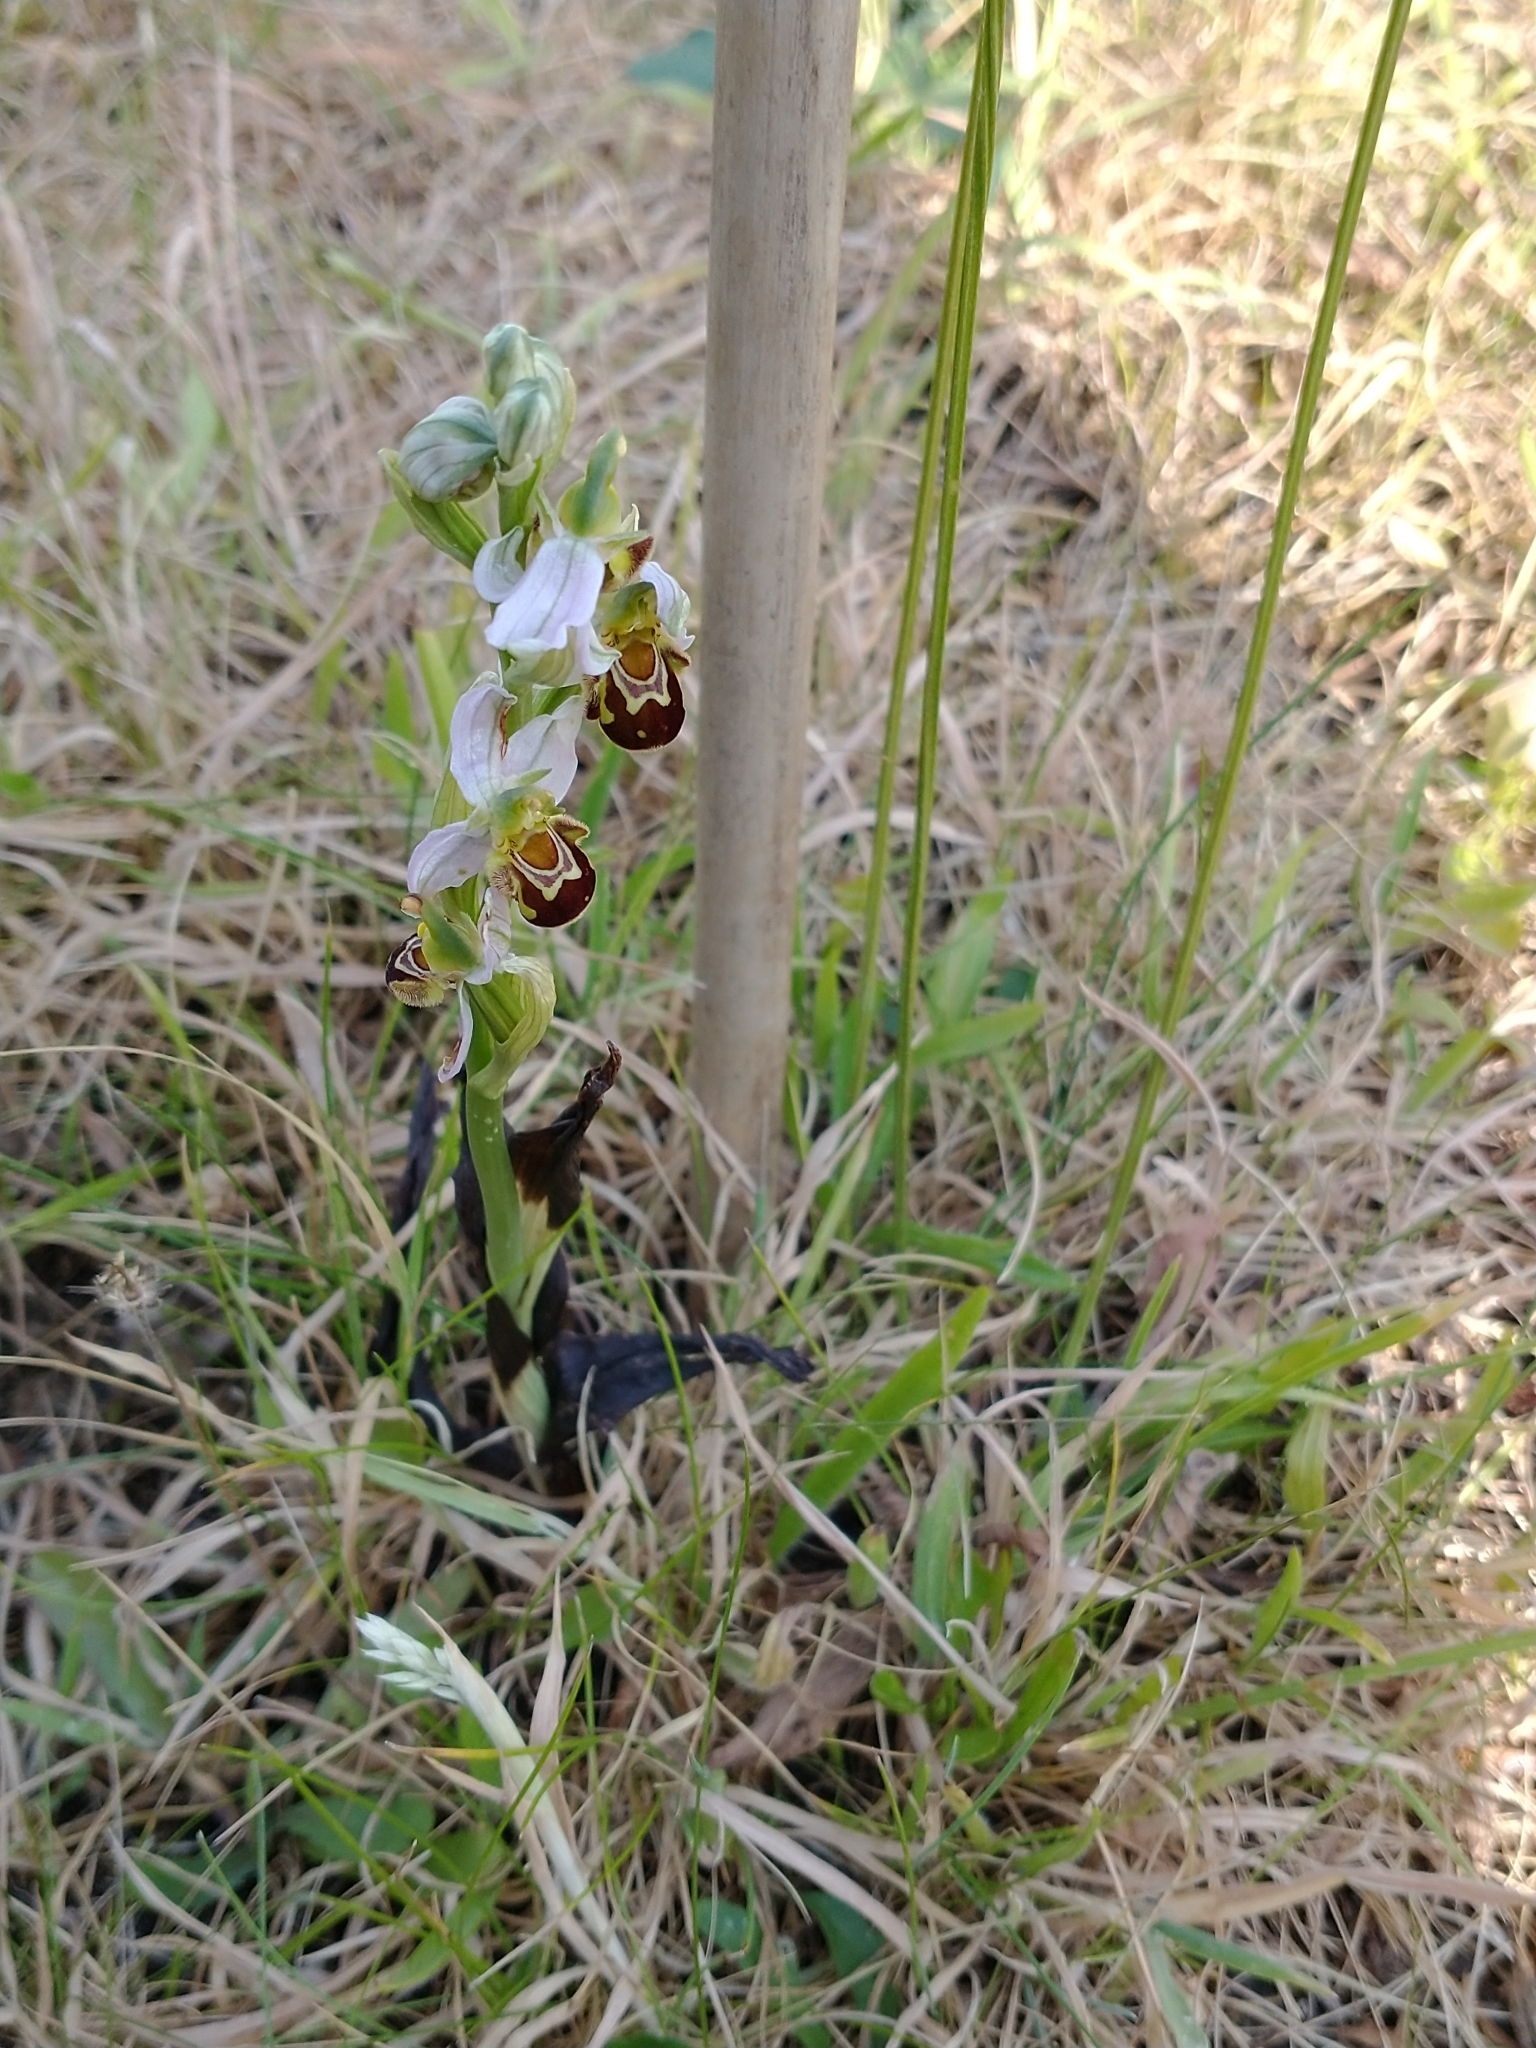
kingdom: Plantae
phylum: Tracheophyta
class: Liliopsida
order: Asparagales
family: Orchidaceae
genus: Ophrys
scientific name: Ophrys apifera
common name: Bee orchid
